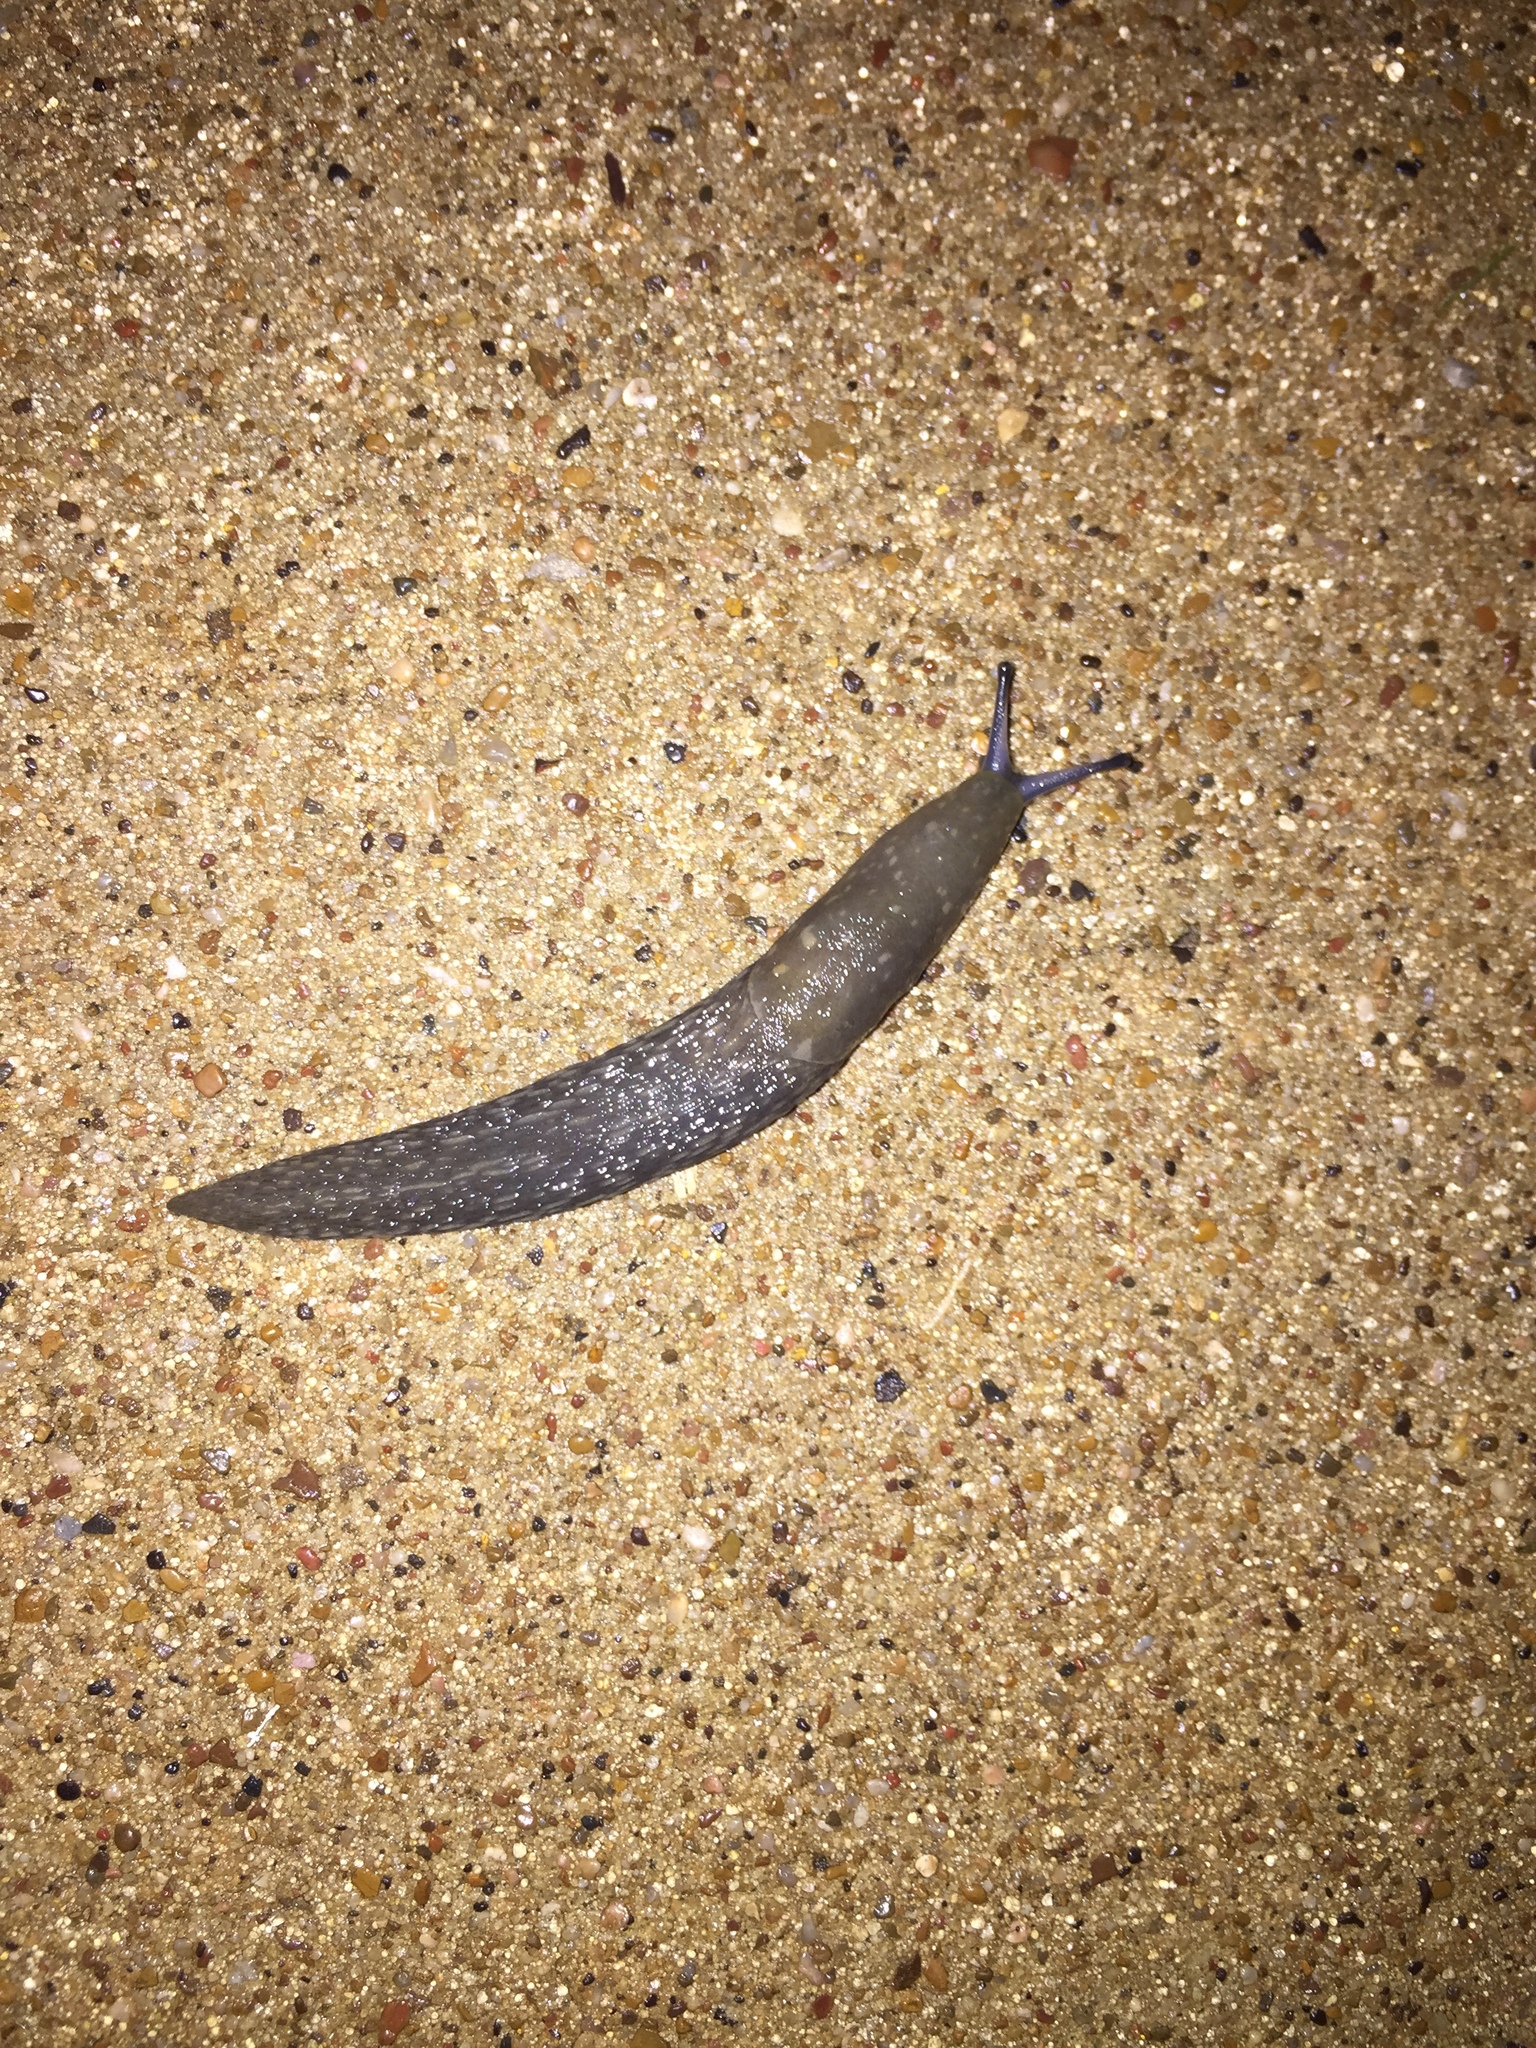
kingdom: Animalia
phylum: Mollusca
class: Gastropoda
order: Stylommatophora
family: Limacidae
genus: Limacus
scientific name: Limacus flavus
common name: Yellow gardenslug
